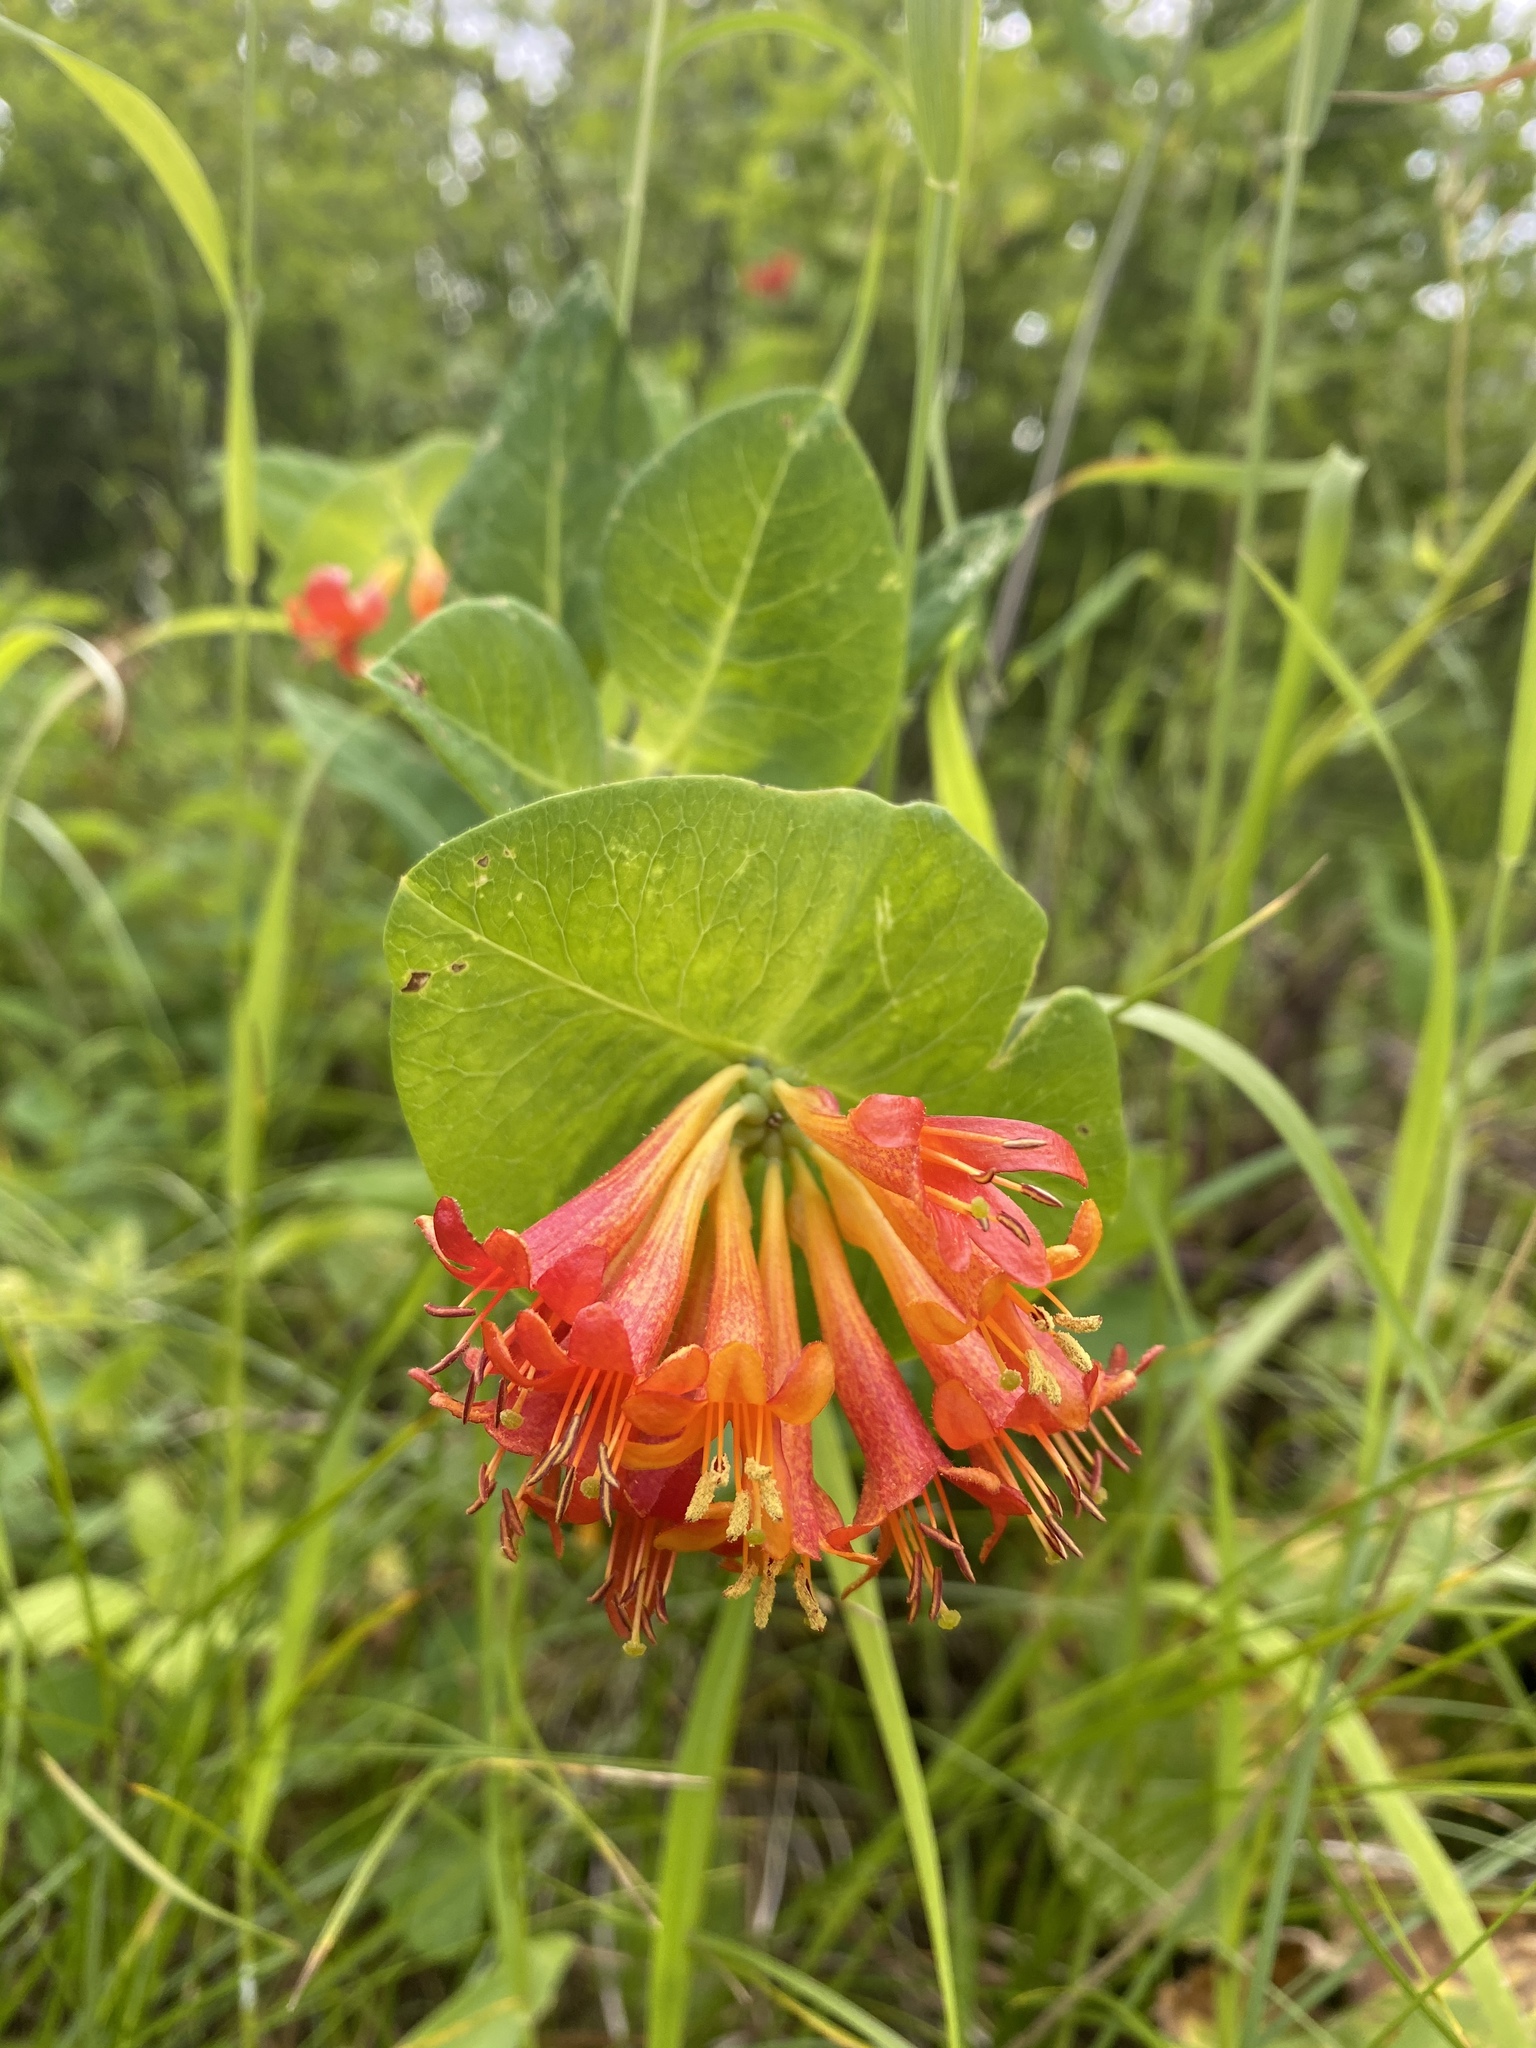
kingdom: Plantae
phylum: Tracheophyta
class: Magnoliopsida
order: Dipsacales
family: Caprifoliaceae
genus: Lonicera
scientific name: Lonicera ciliosa
